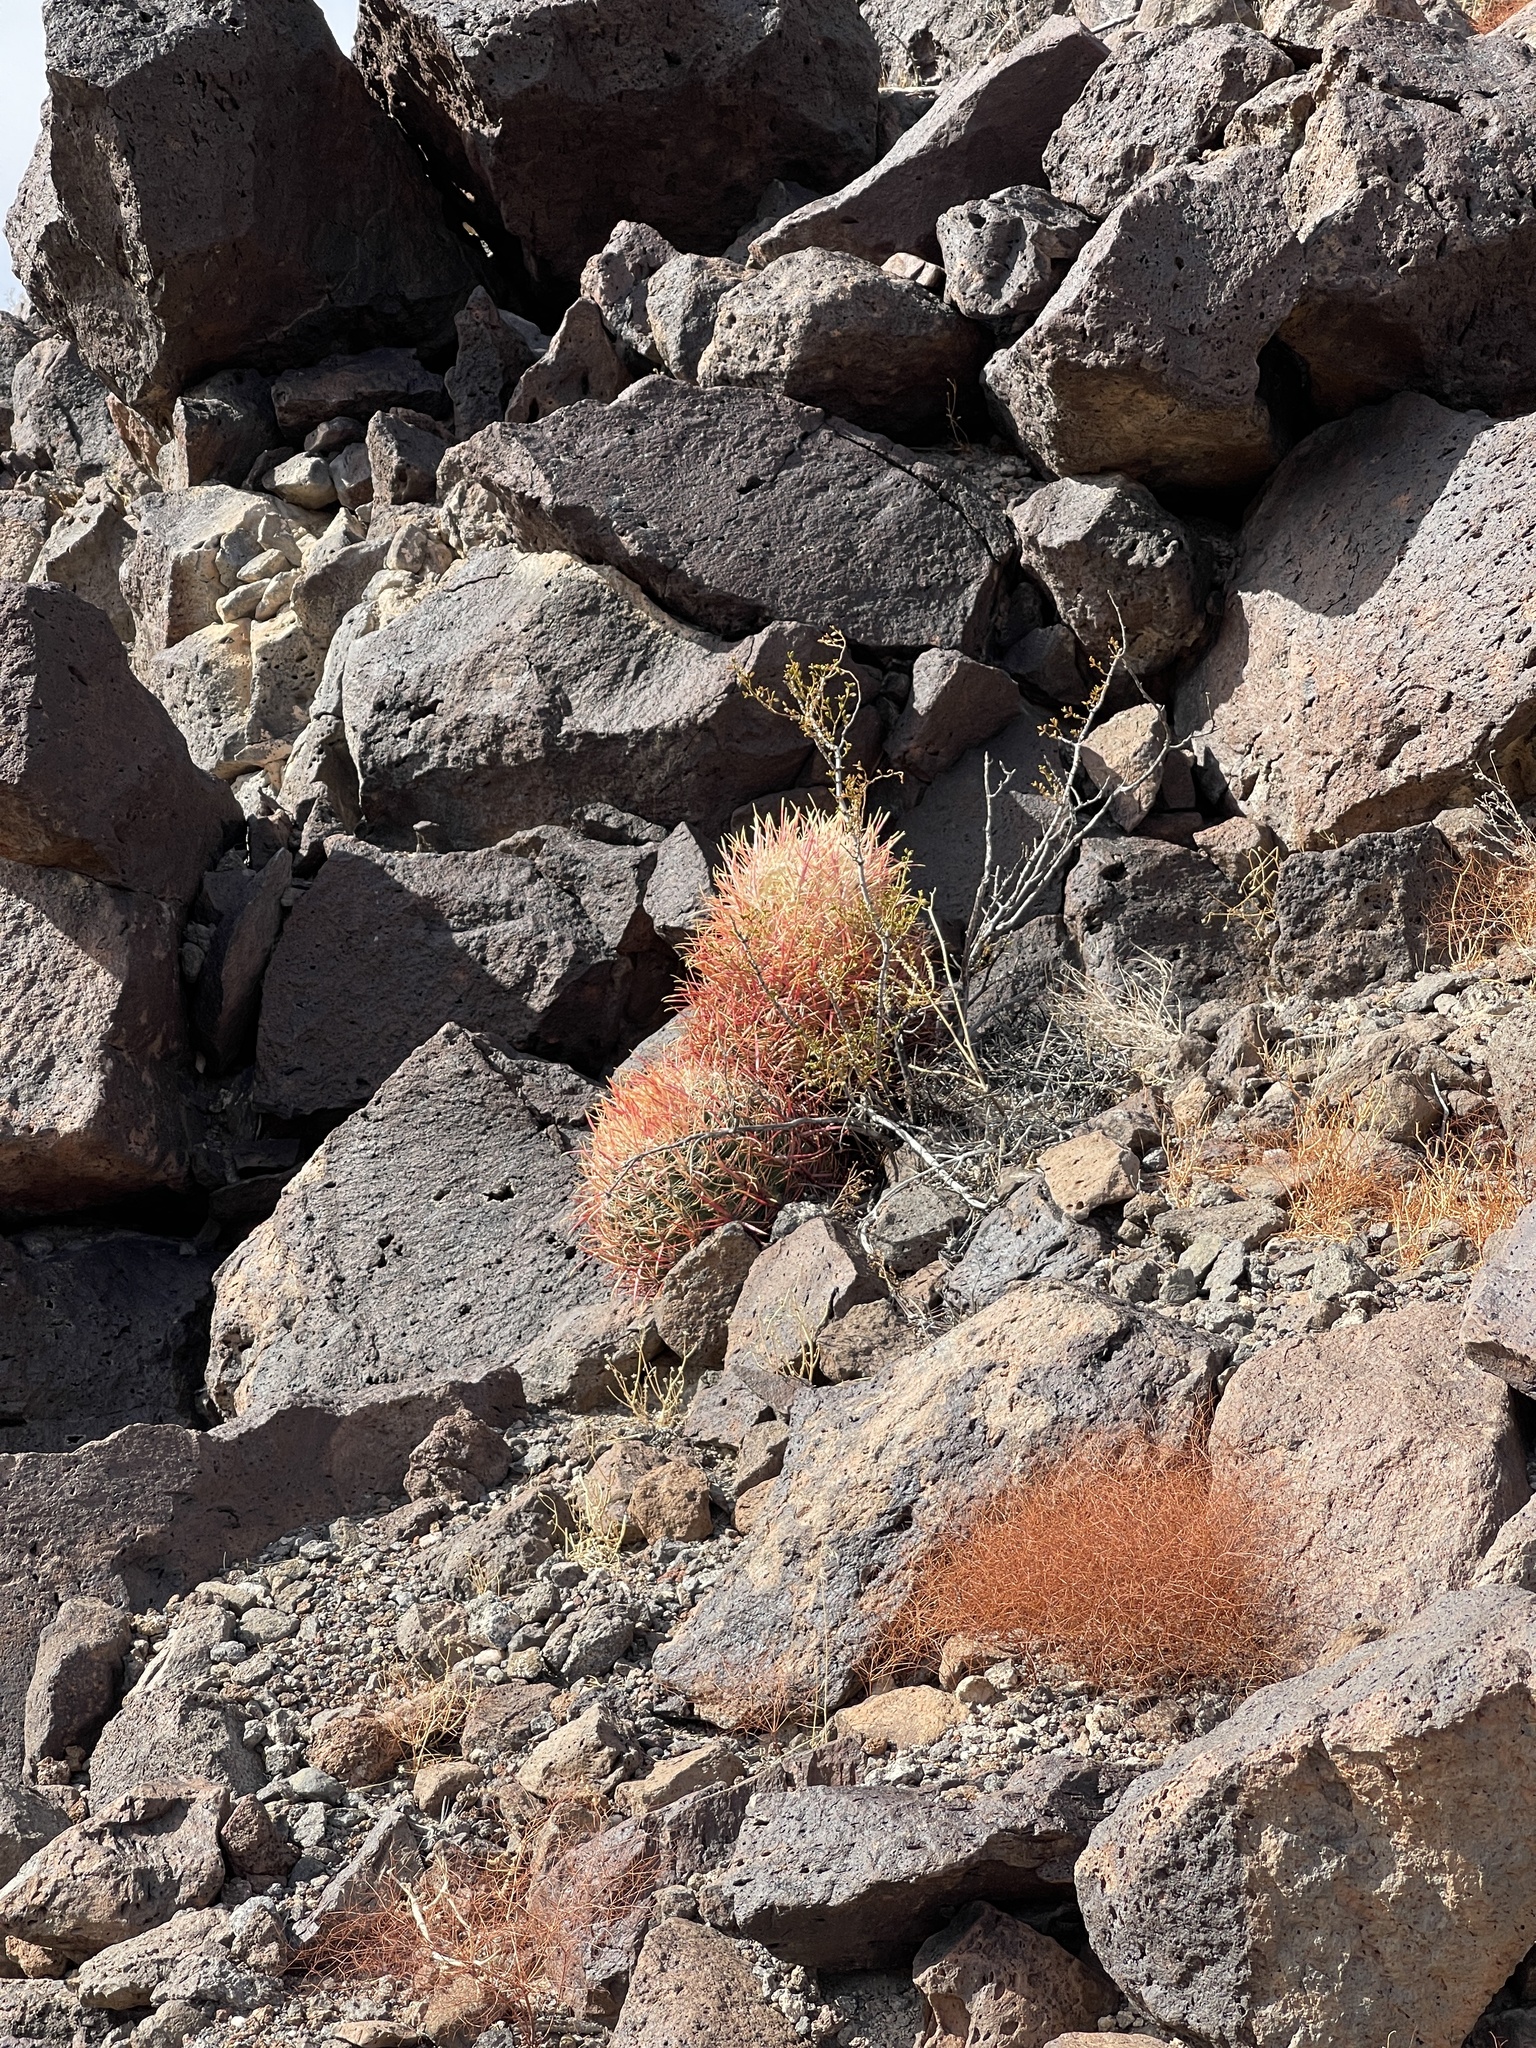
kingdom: Plantae
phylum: Tracheophyta
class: Magnoliopsida
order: Caryophyllales
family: Cactaceae
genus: Ferocactus
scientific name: Ferocactus cylindraceus
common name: California barrel cactus
